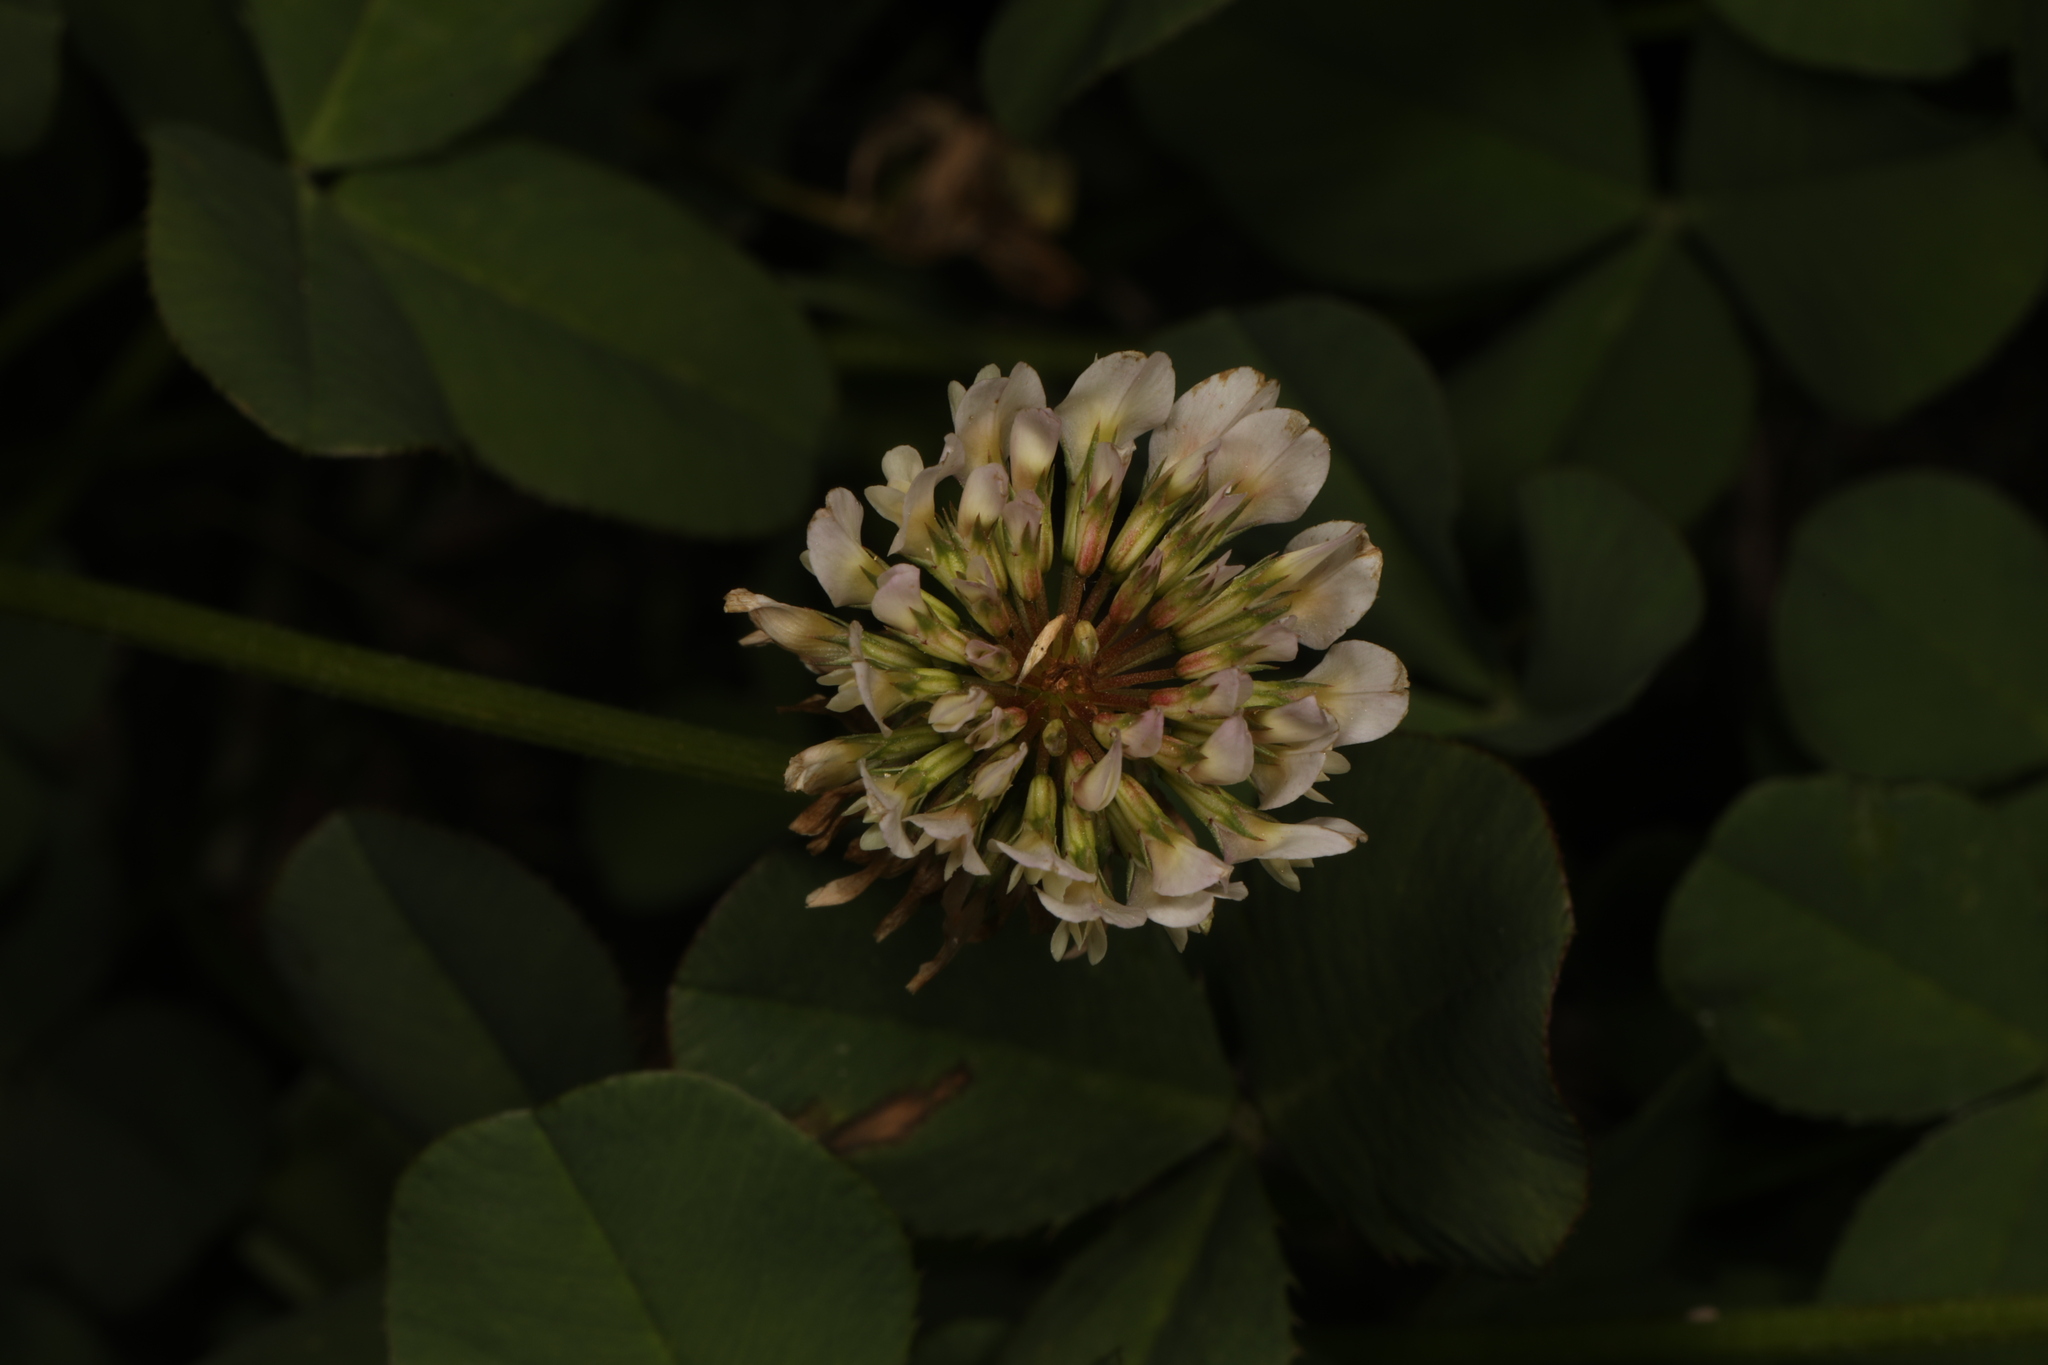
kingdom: Plantae
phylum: Tracheophyta
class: Magnoliopsida
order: Fabales
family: Fabaceae
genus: Trifolium
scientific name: Trifolium repens
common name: White clover
